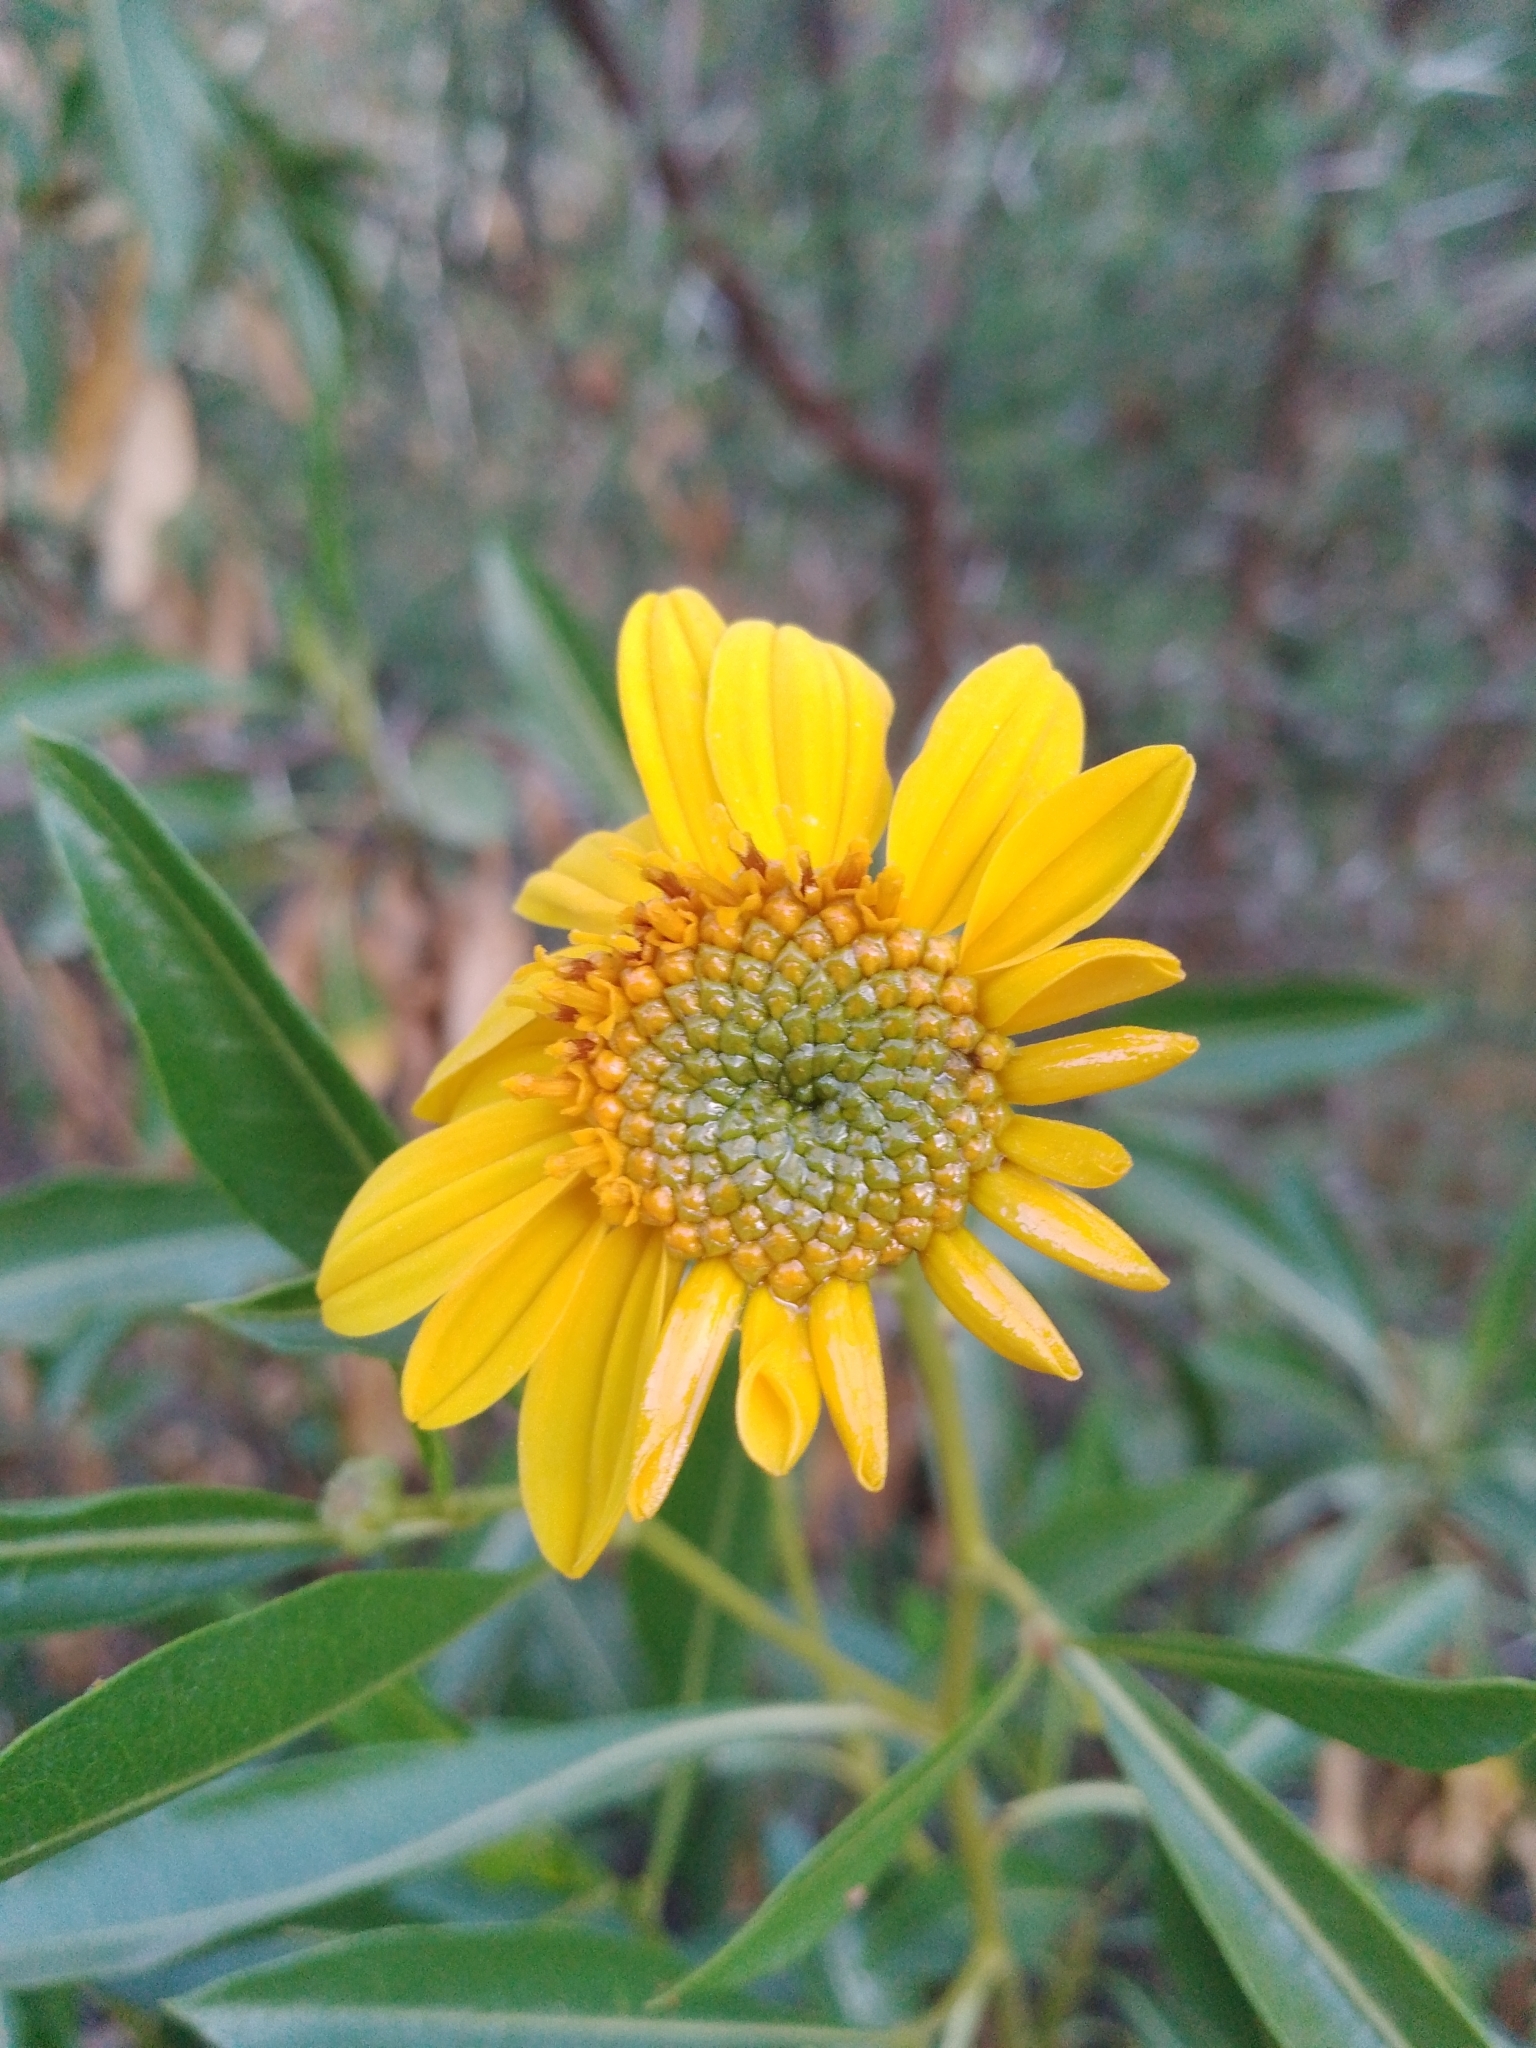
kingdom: Plantae
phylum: Tracheophyta
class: Magnoliopsida
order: Asterales
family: Asteraceae
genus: Flourensia
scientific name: Flourensia thurifera
